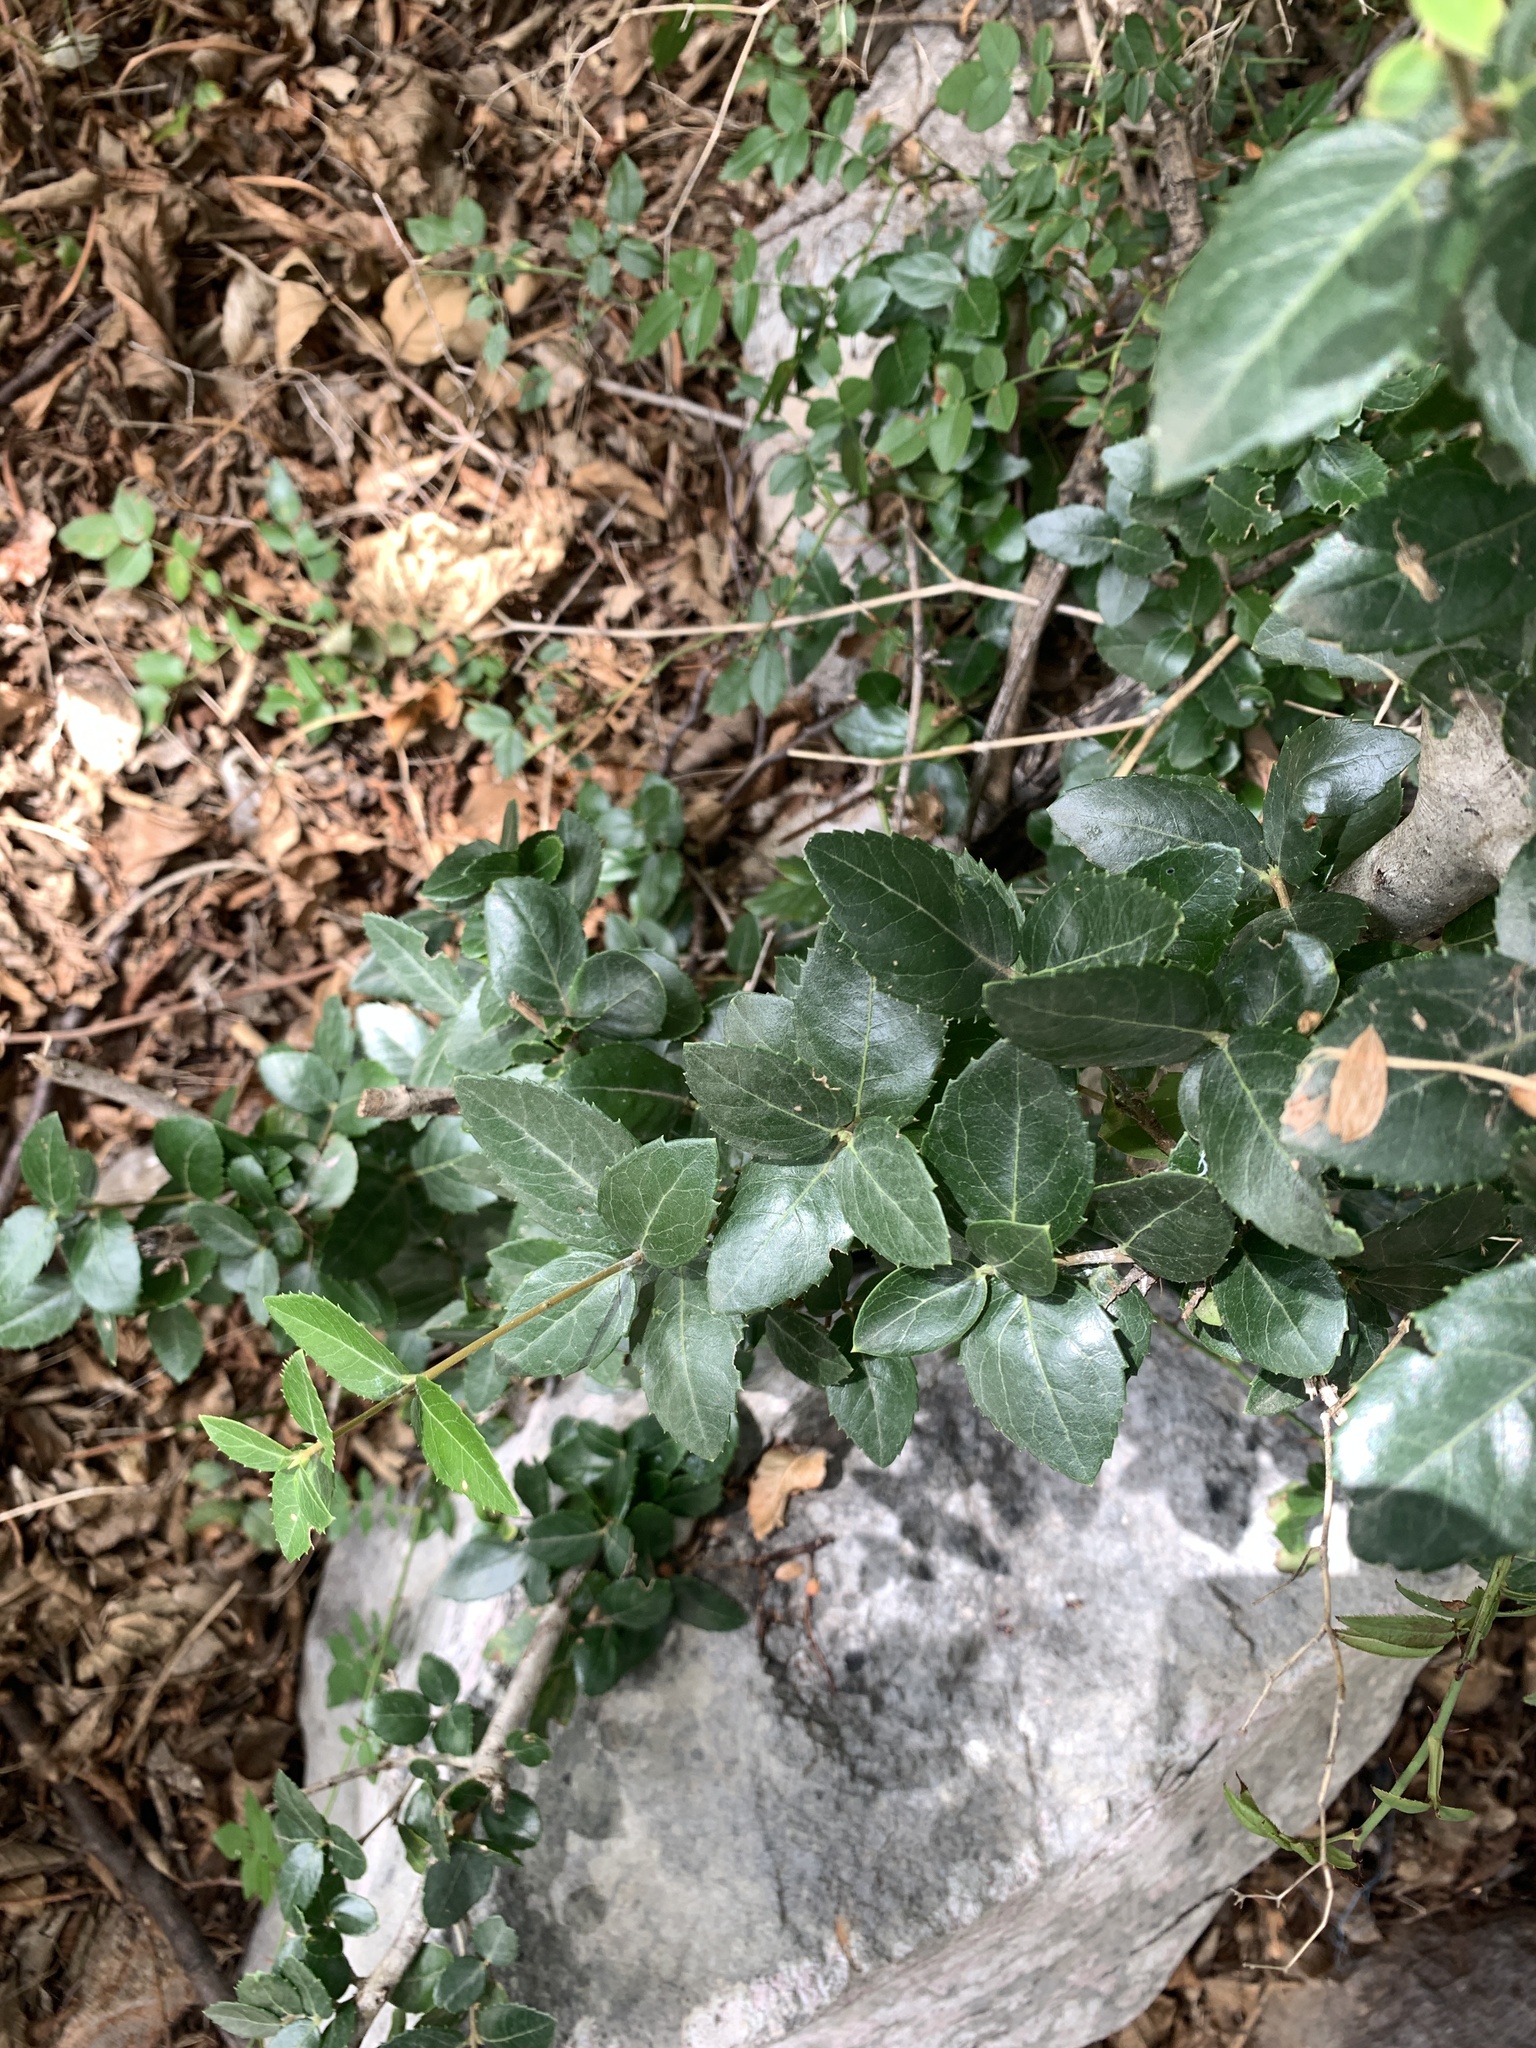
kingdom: Plantae
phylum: Tracheophyta
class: Magnoliopsida
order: Lamiales
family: Oleaceae
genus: Phillyrea
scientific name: Phillyrea latifolia
